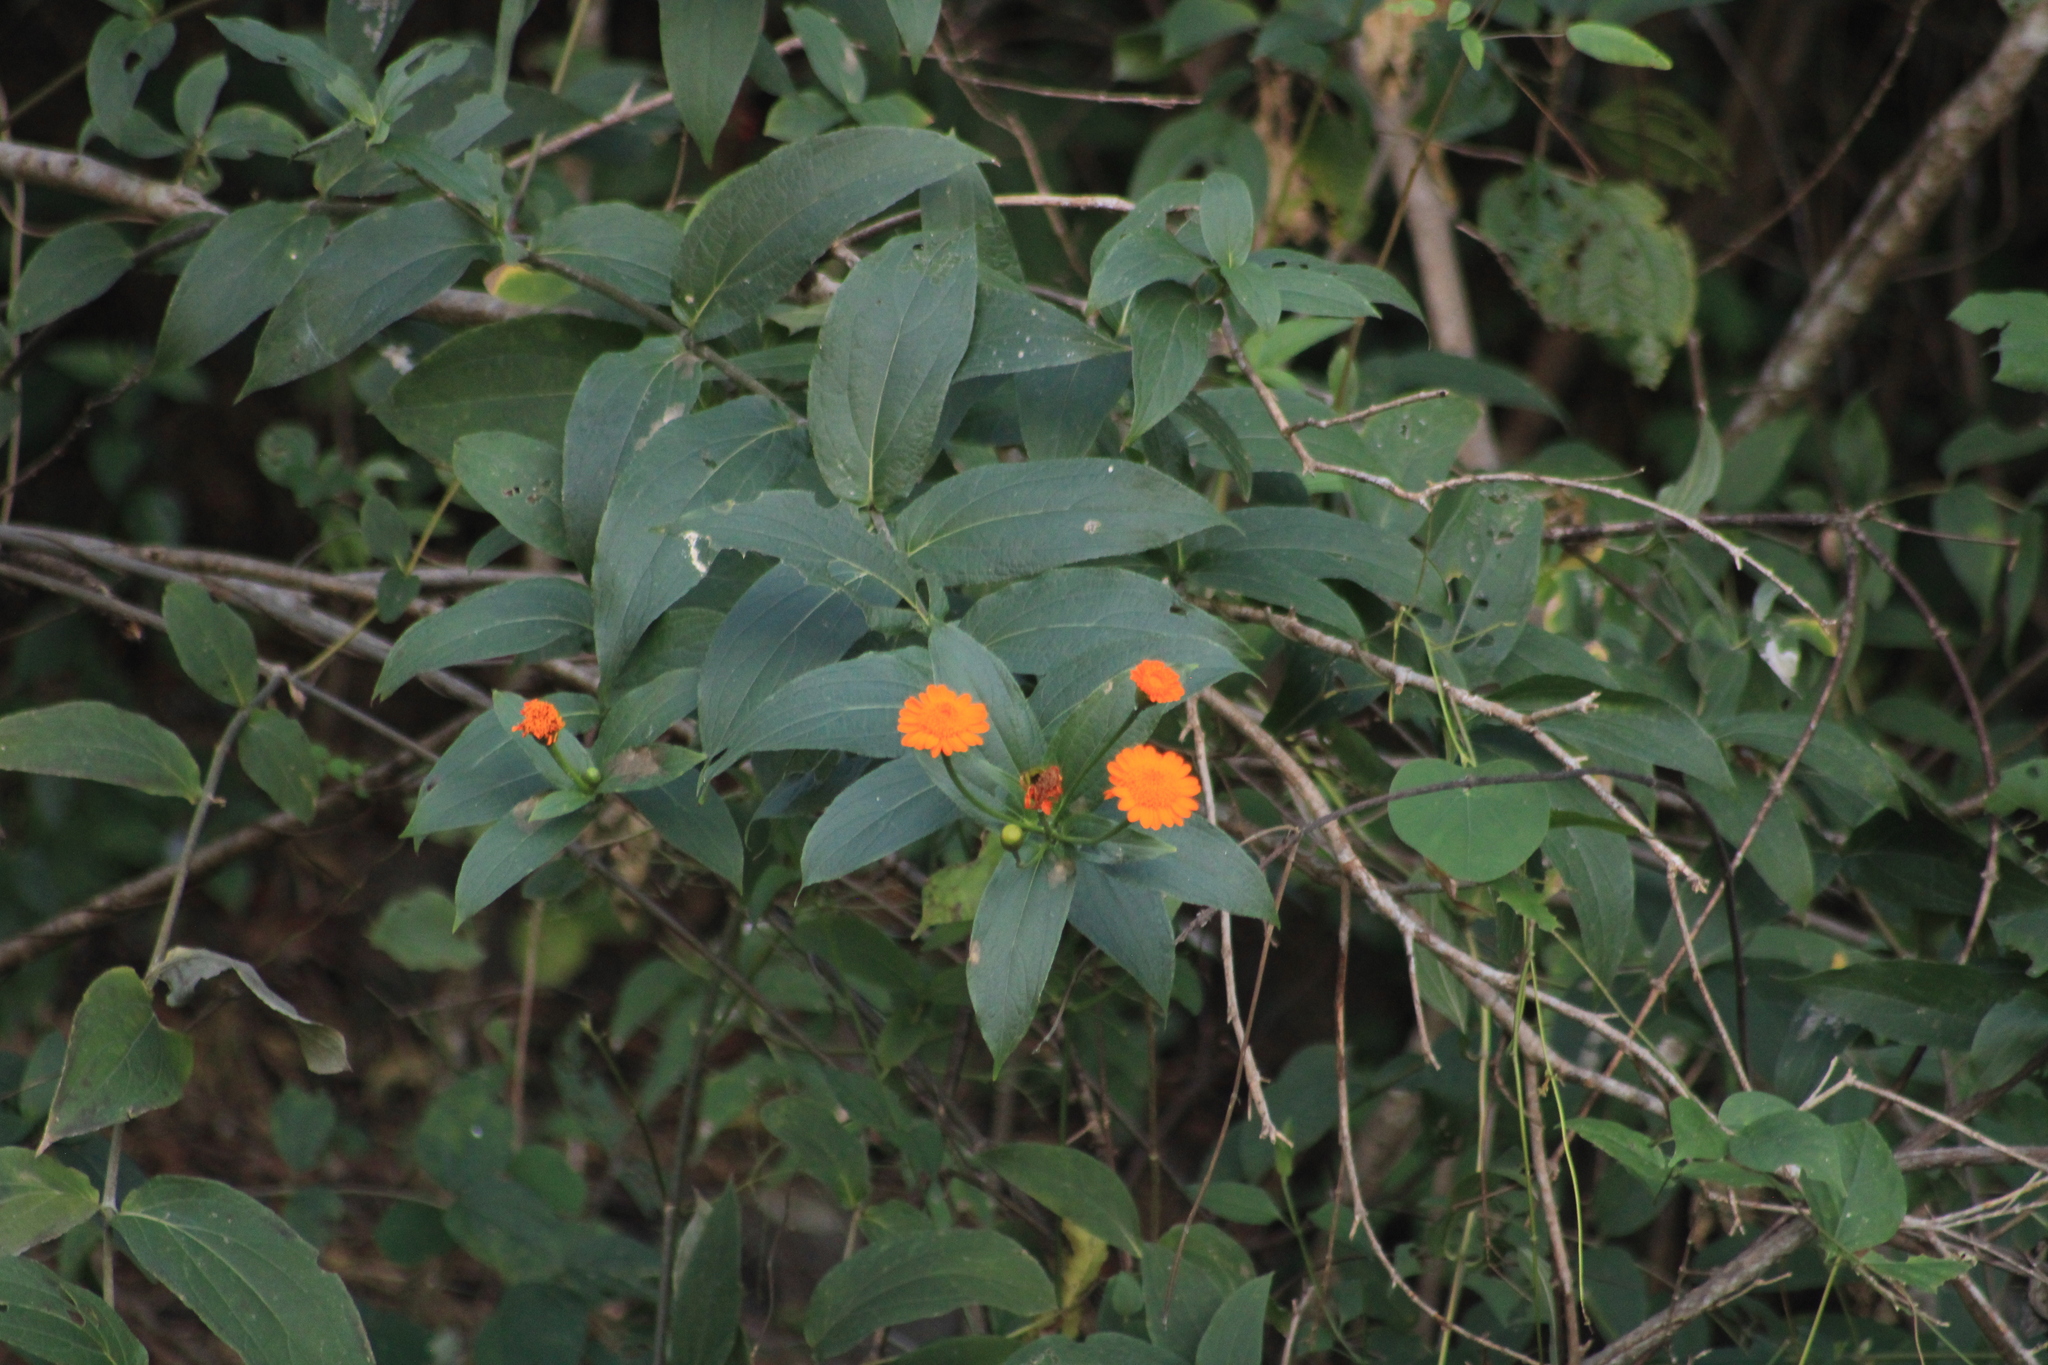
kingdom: Plantae
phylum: Tracheophyta
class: Magnoliopsida
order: Asterales
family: Asteraceae
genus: Lasianthaea
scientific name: Lasianthaea macrocephala
